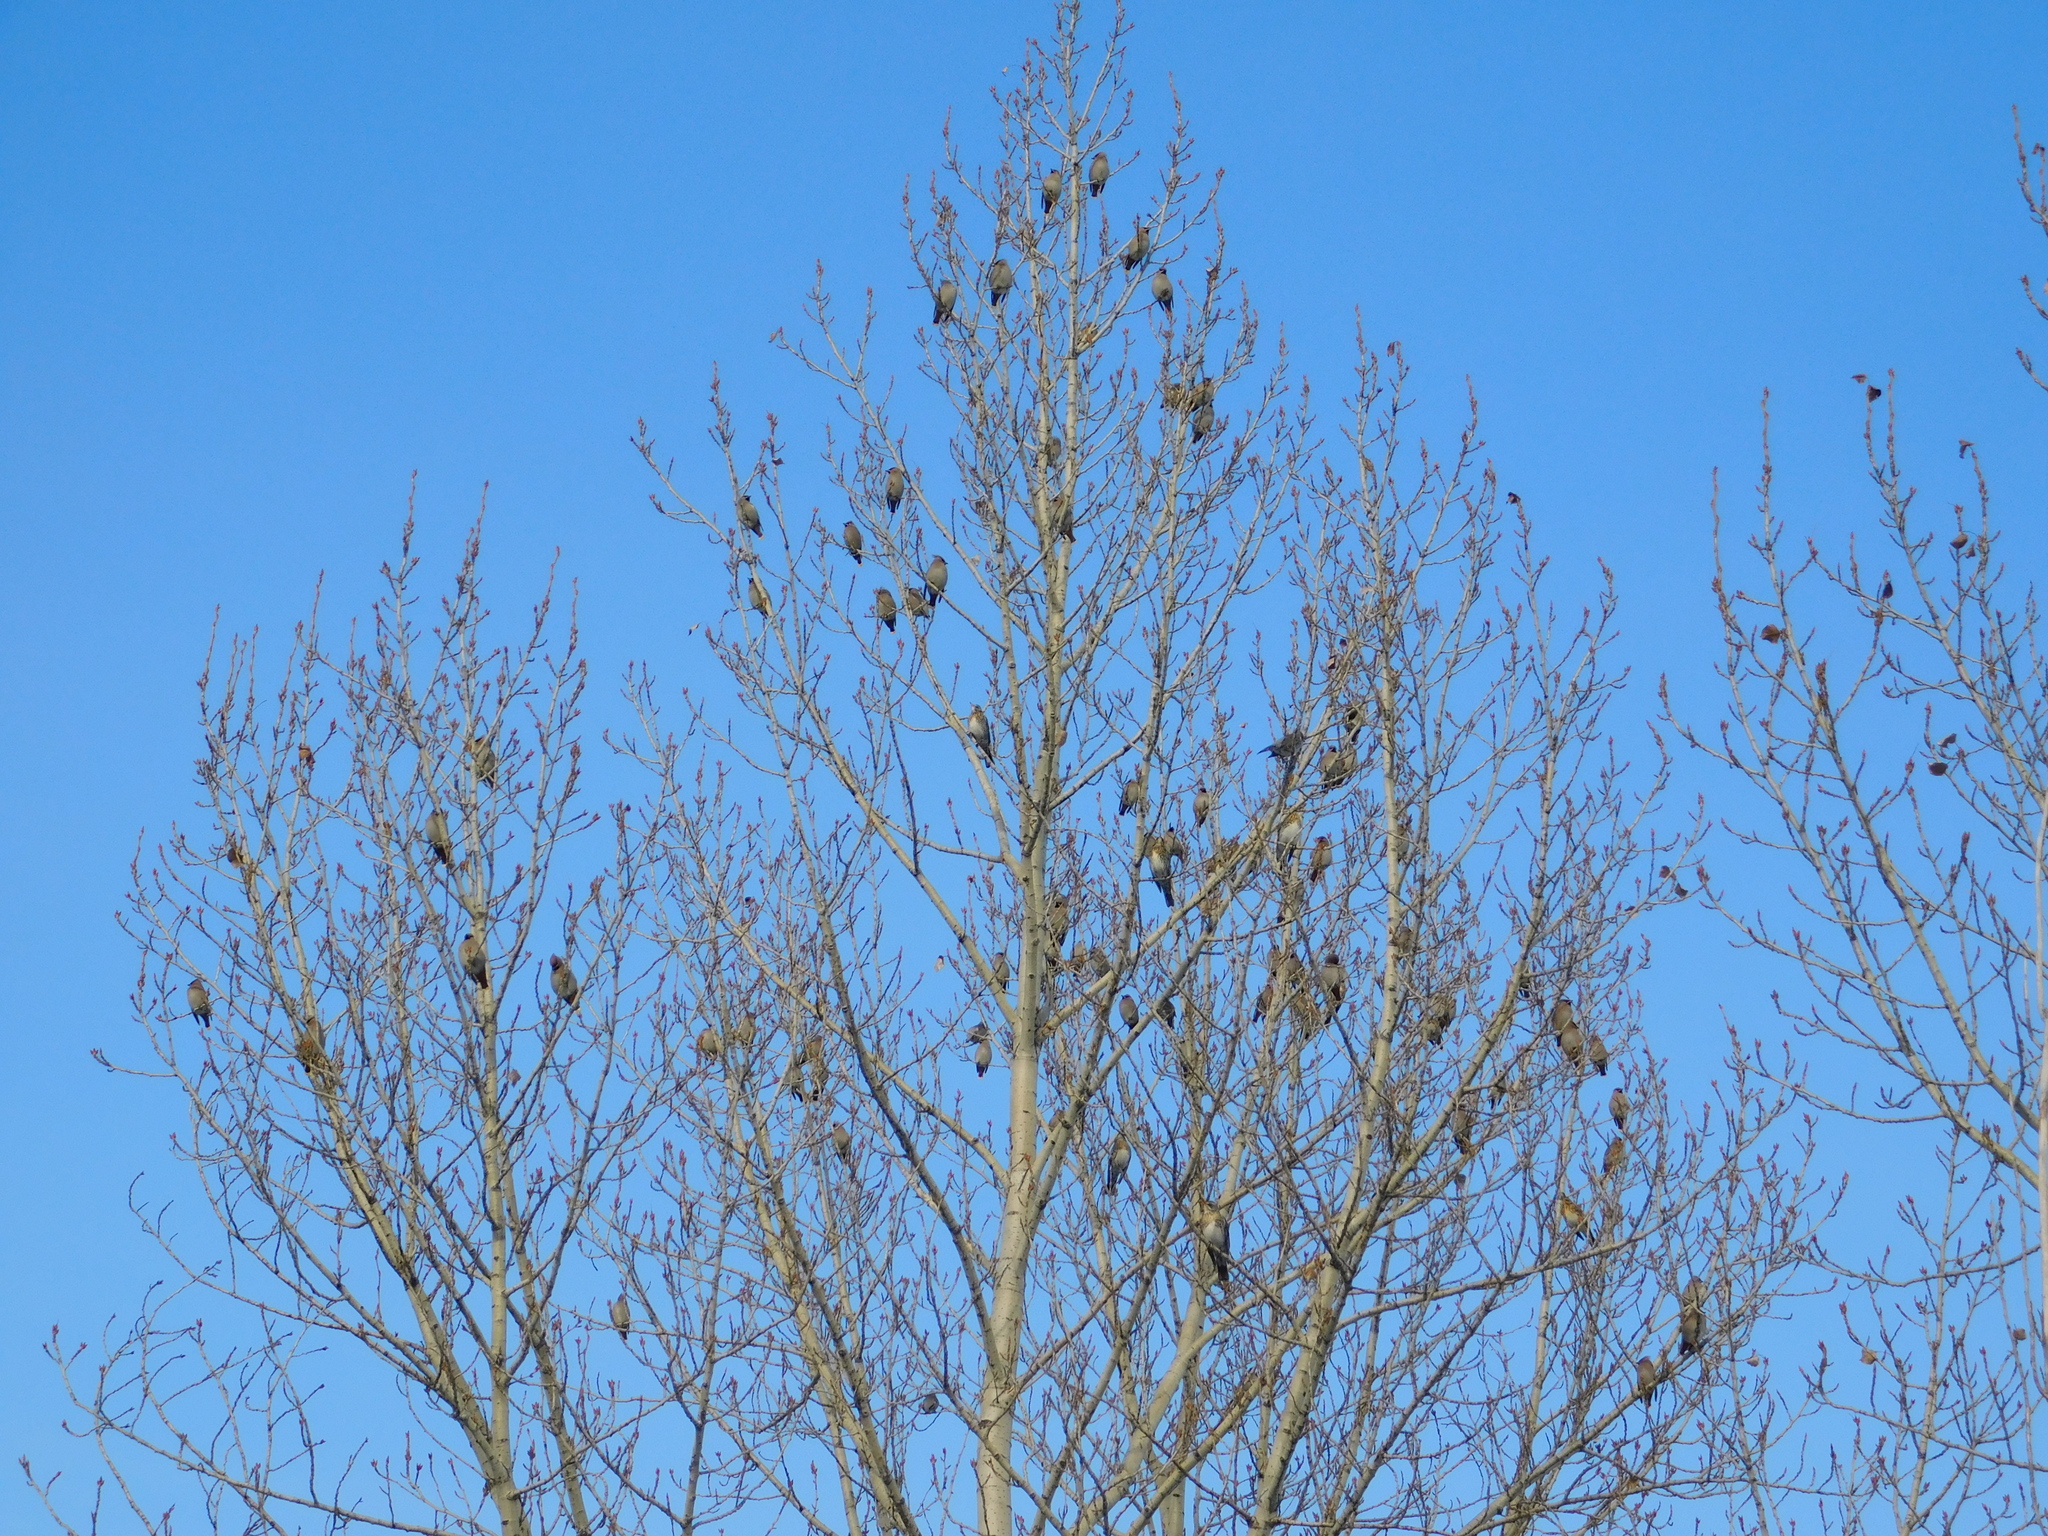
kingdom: Animalia
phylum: Chordata
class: Aves
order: Passeriformes
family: Bombycillidae
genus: Bombycilla
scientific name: Bombycilla garrulus
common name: Bohemian waxwing
